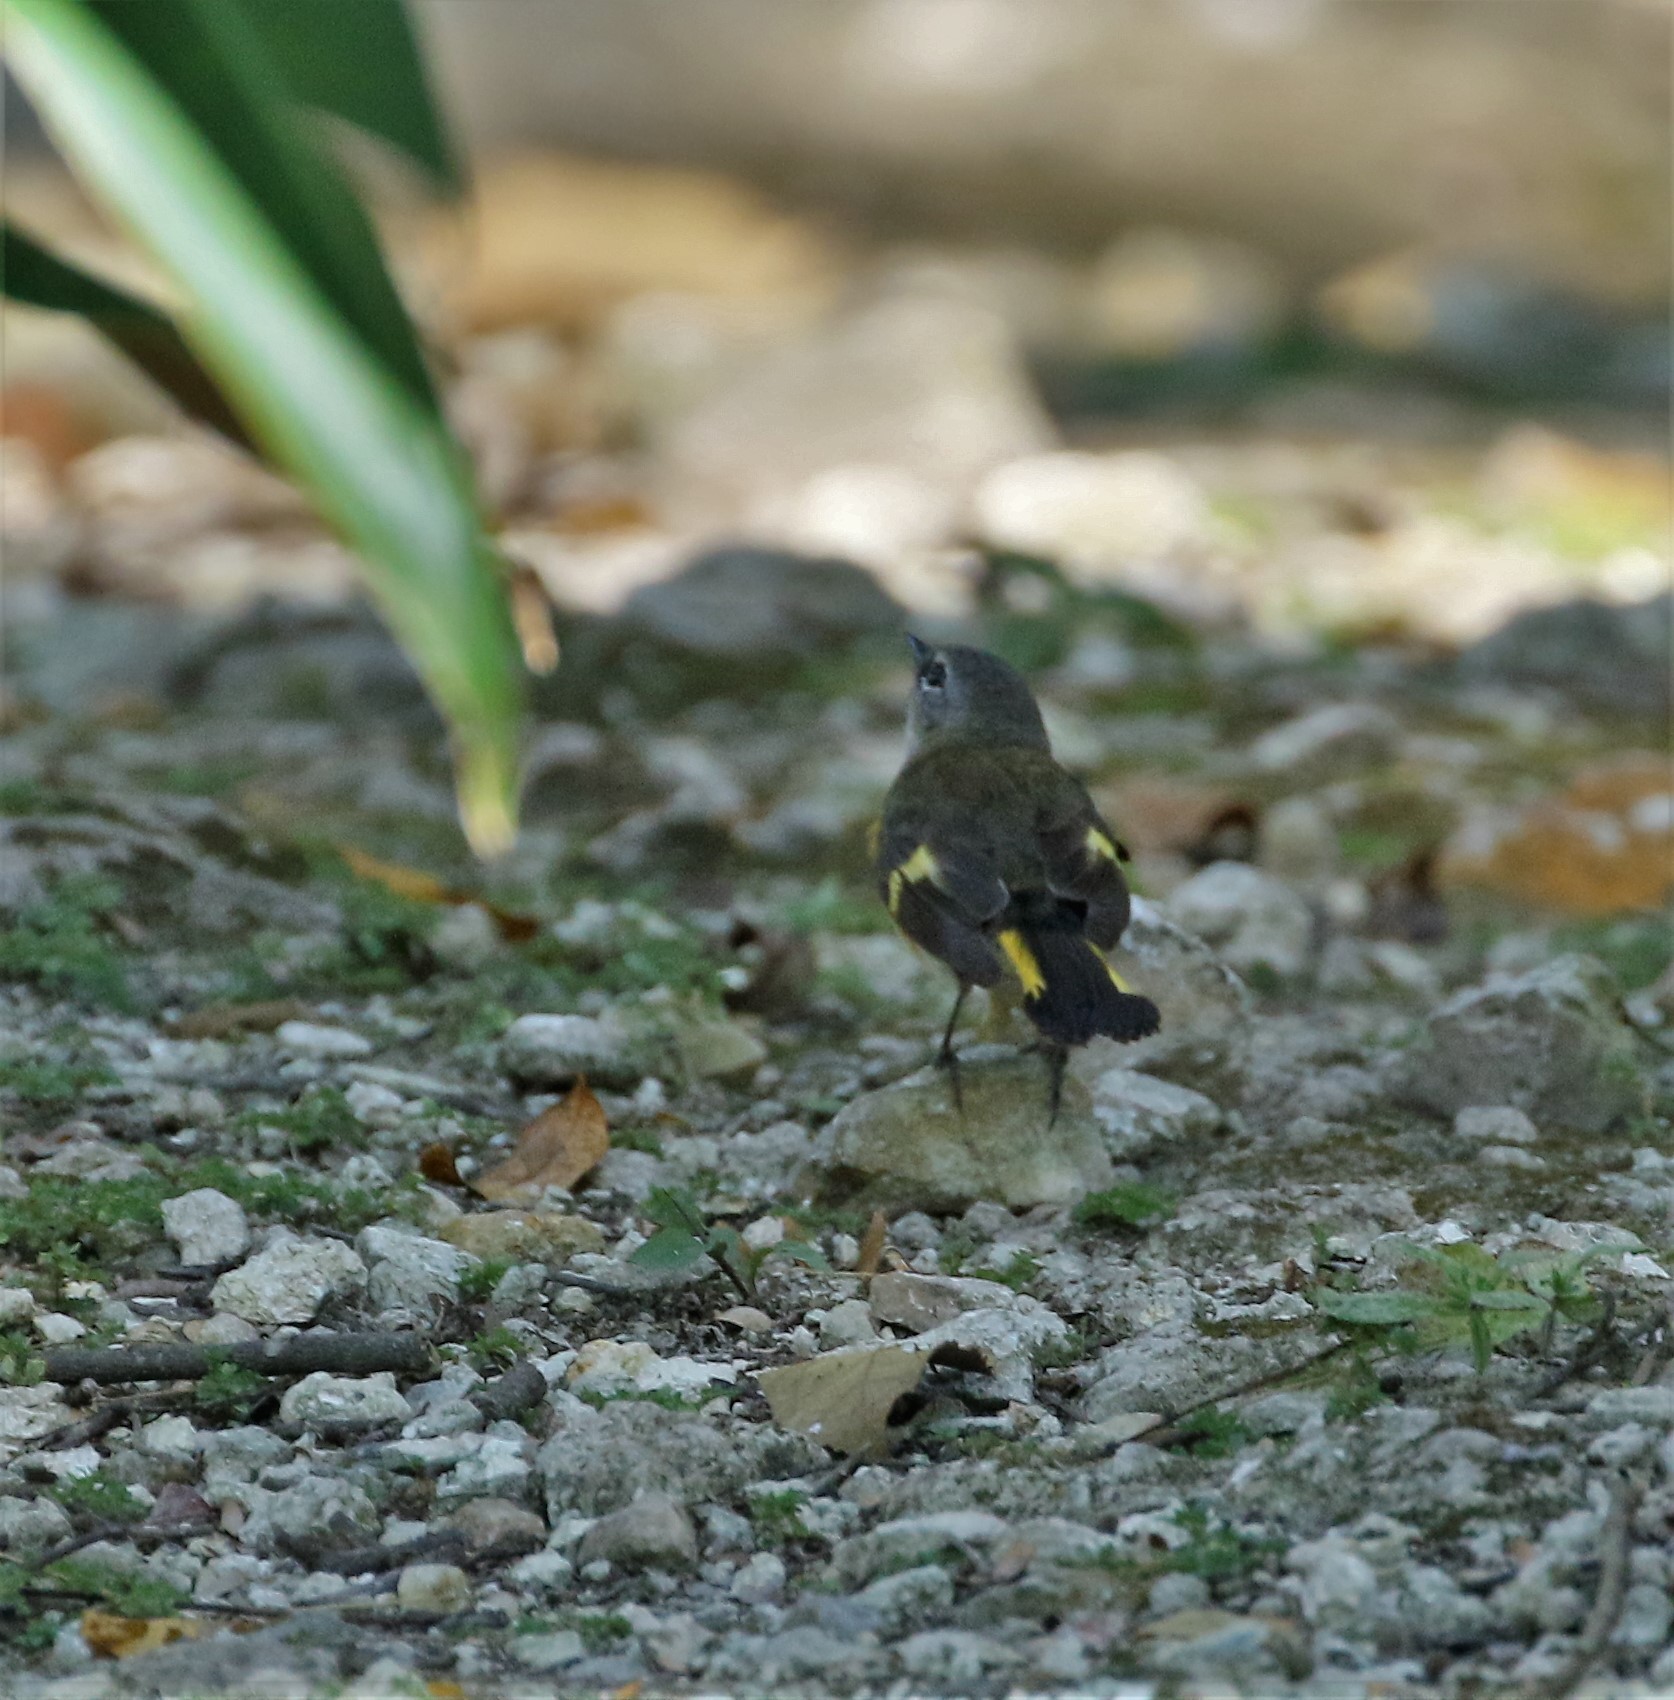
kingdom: Animalia
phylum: Chordata
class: Aves
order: Passeriformes
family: Parulidae
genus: Setophaga
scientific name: Setophaga ruticilla
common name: American redstart
